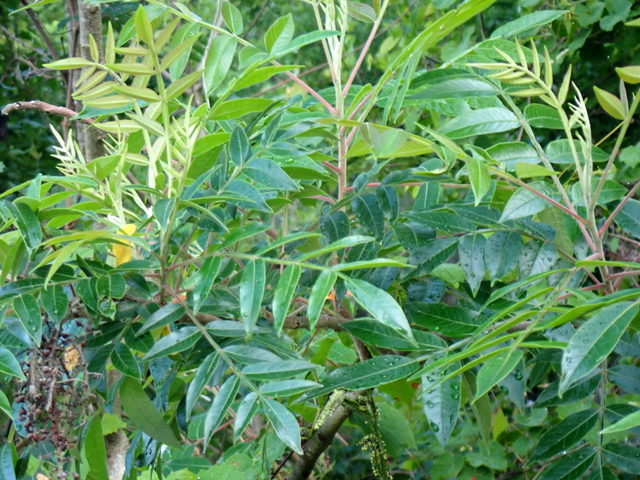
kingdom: Plantae
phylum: Tracheophyta
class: Magnoliopsida
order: Sapindales
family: Anacardiaceae
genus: Rhus
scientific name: Rhus copallina
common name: Shining sumac
